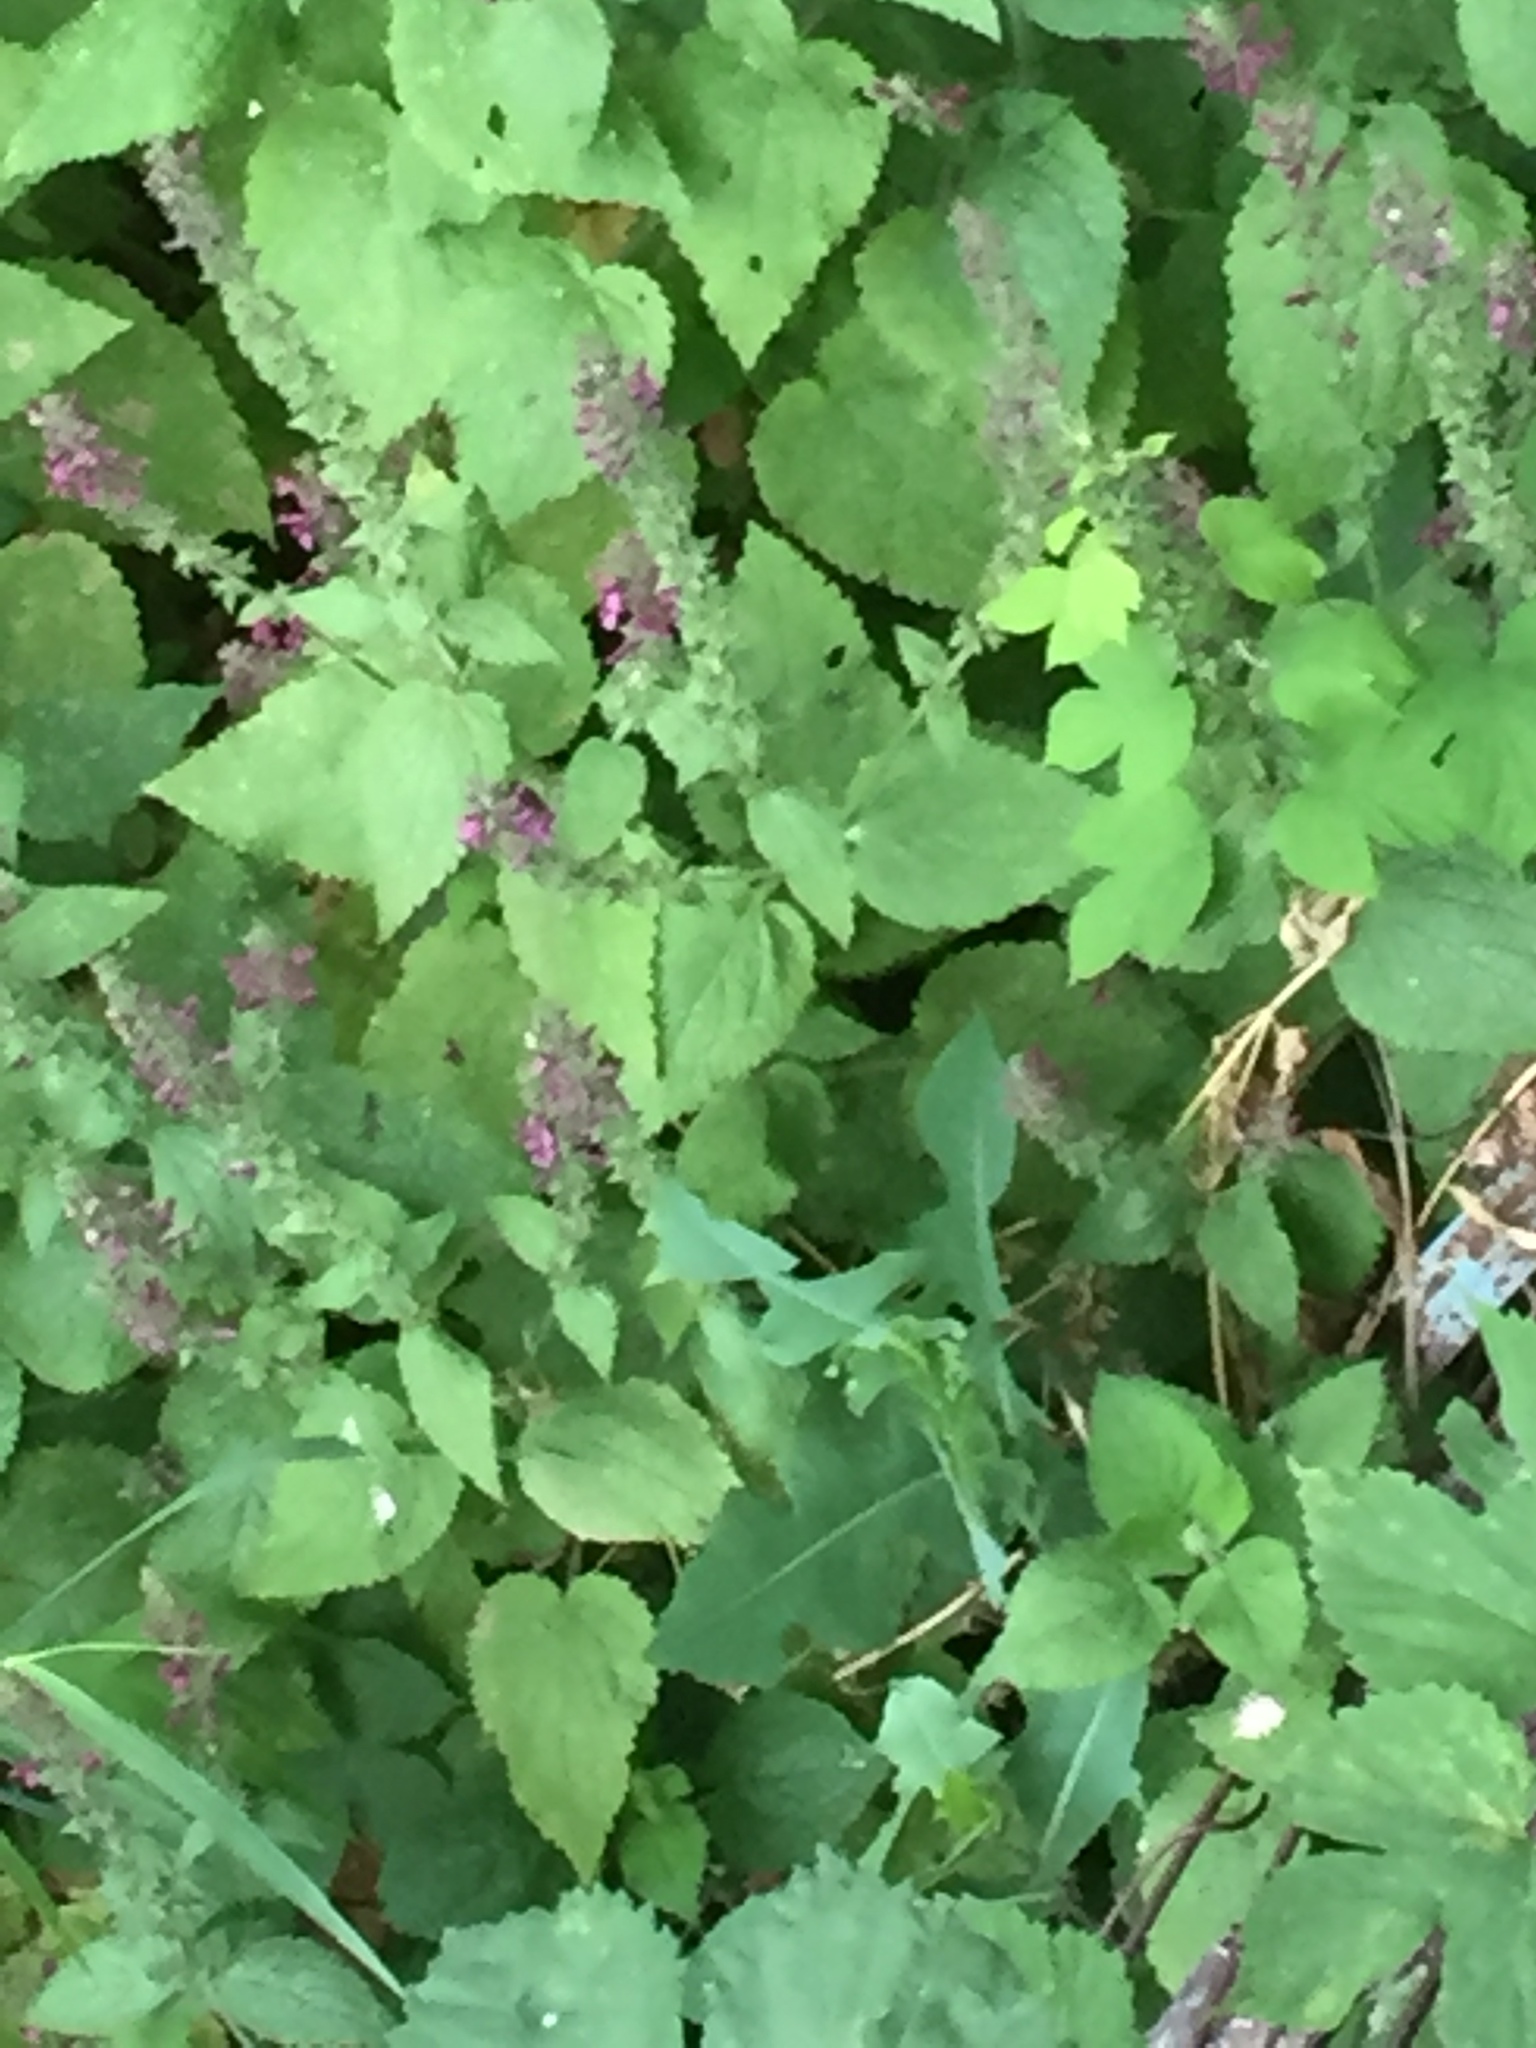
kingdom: Plantae
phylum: Tracheophyta
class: Magnoliopsida
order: Lamiales
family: Lamiaceae
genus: Stachys
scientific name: Stachys sylvatica
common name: Hedge woundwort
